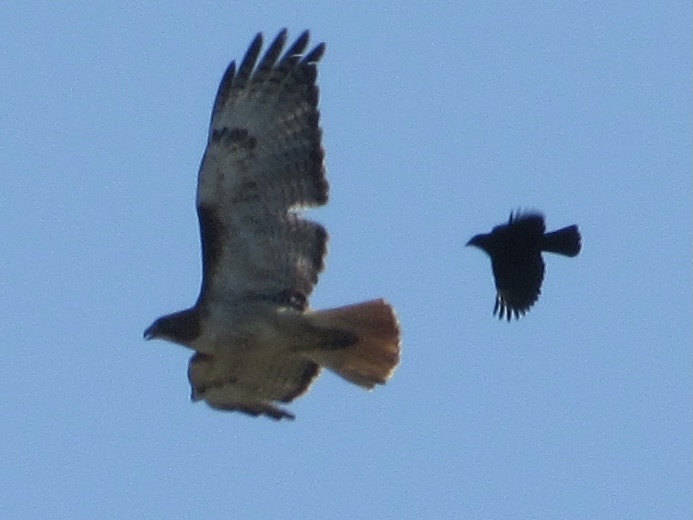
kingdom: Animalia
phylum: Chordata
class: Aves
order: Accipitriformes
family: Accipitridae
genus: Buteo
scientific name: Buteo jamaicensis
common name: Red-tailed hawk
